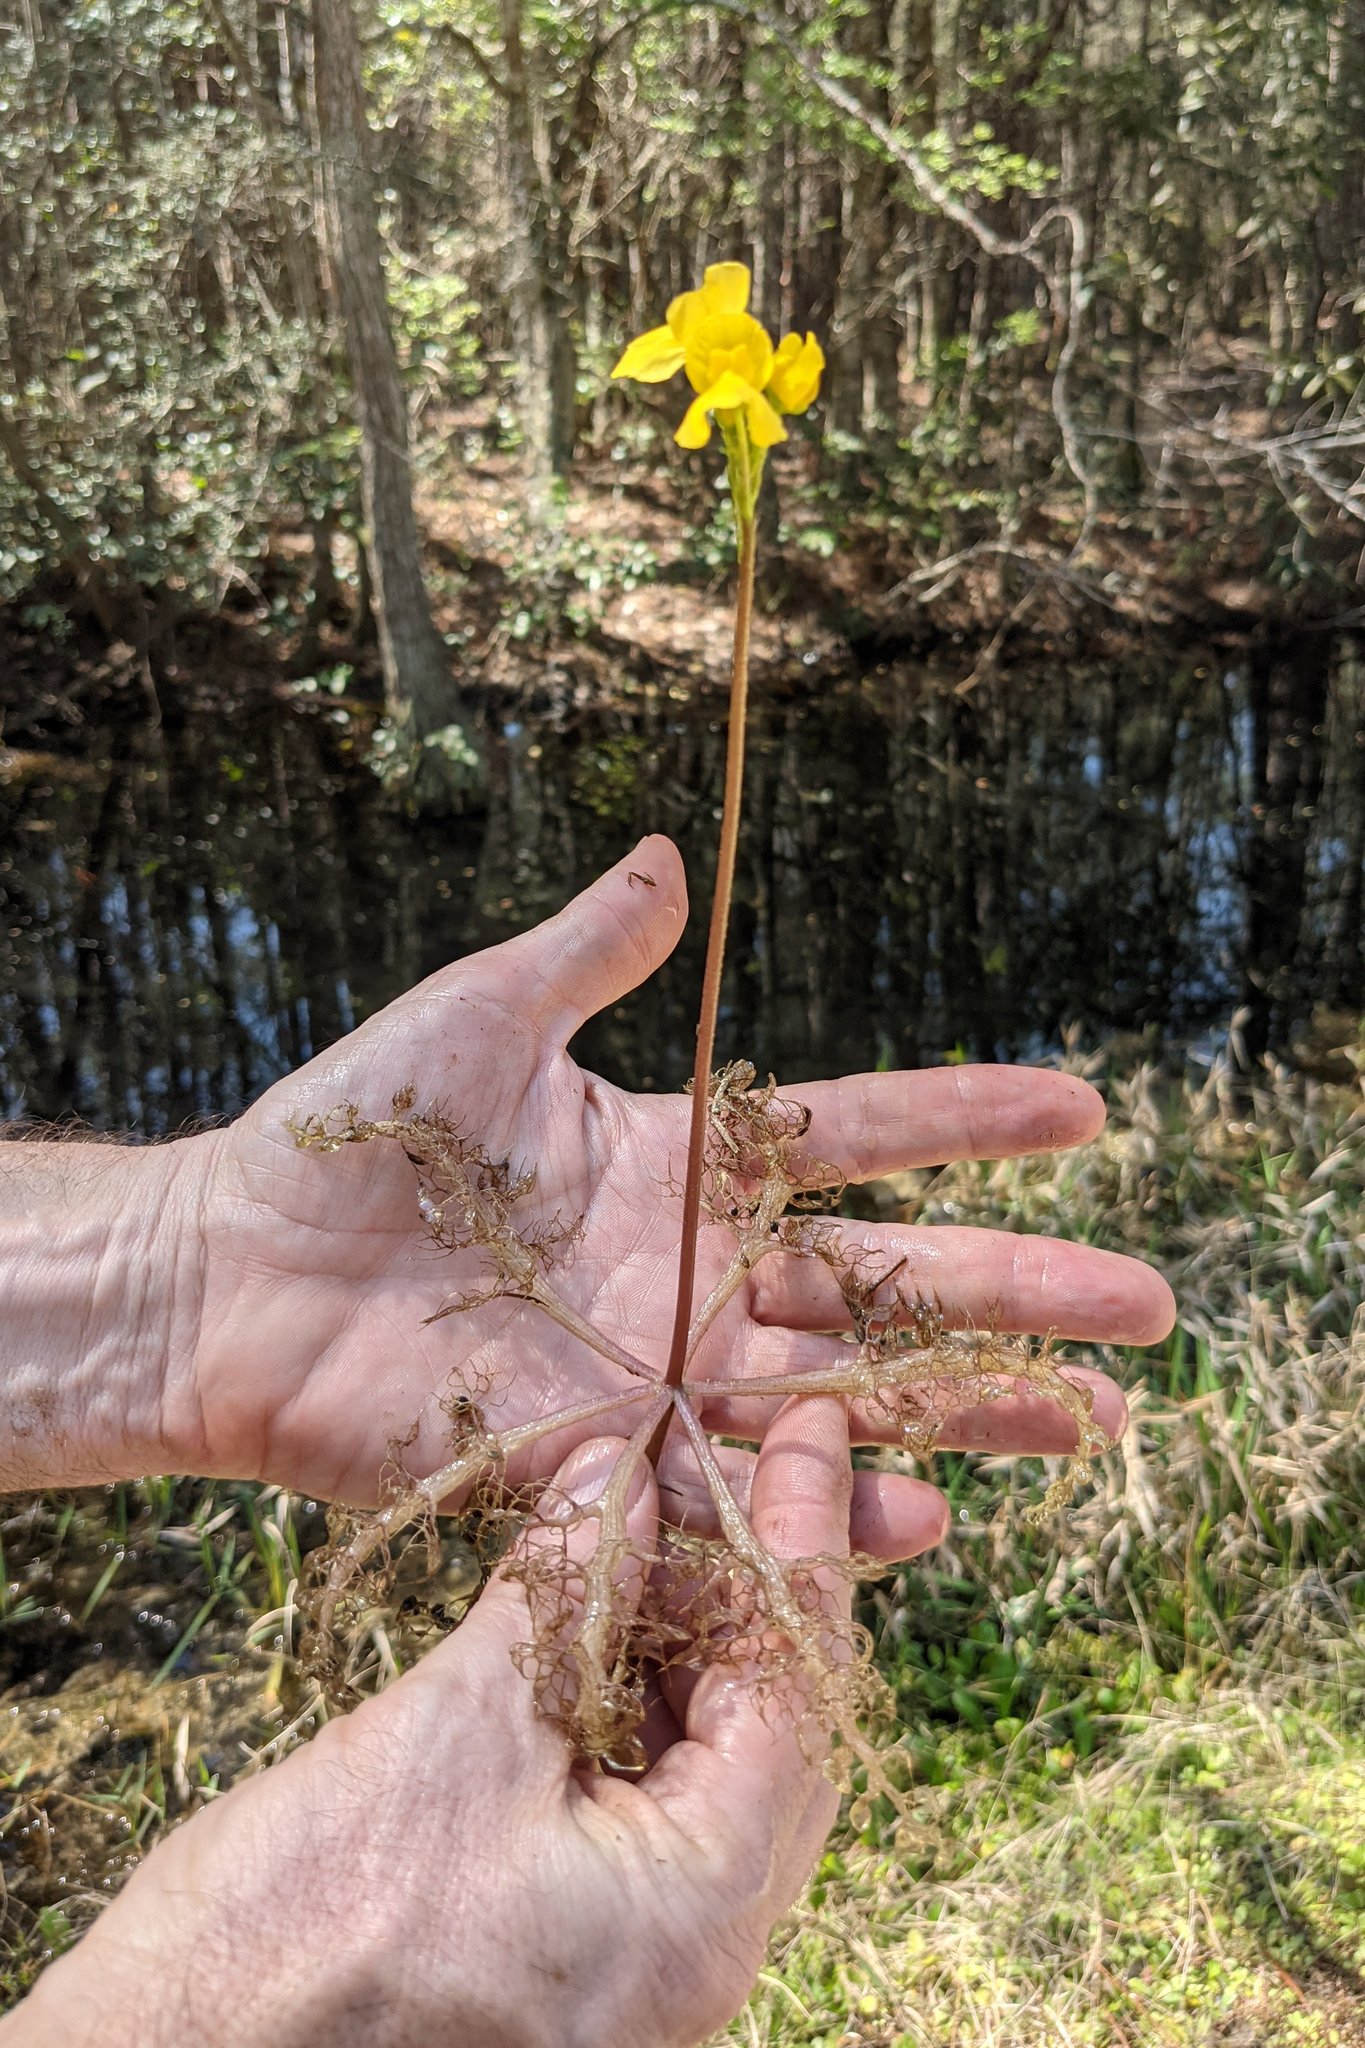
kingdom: Plantae
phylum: Tracheophyta
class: Magnoliopsida
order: Lamiales
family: Lentibulariaceae
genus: Utricularia
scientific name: Utricularia inflata
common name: Floating bladderwort
